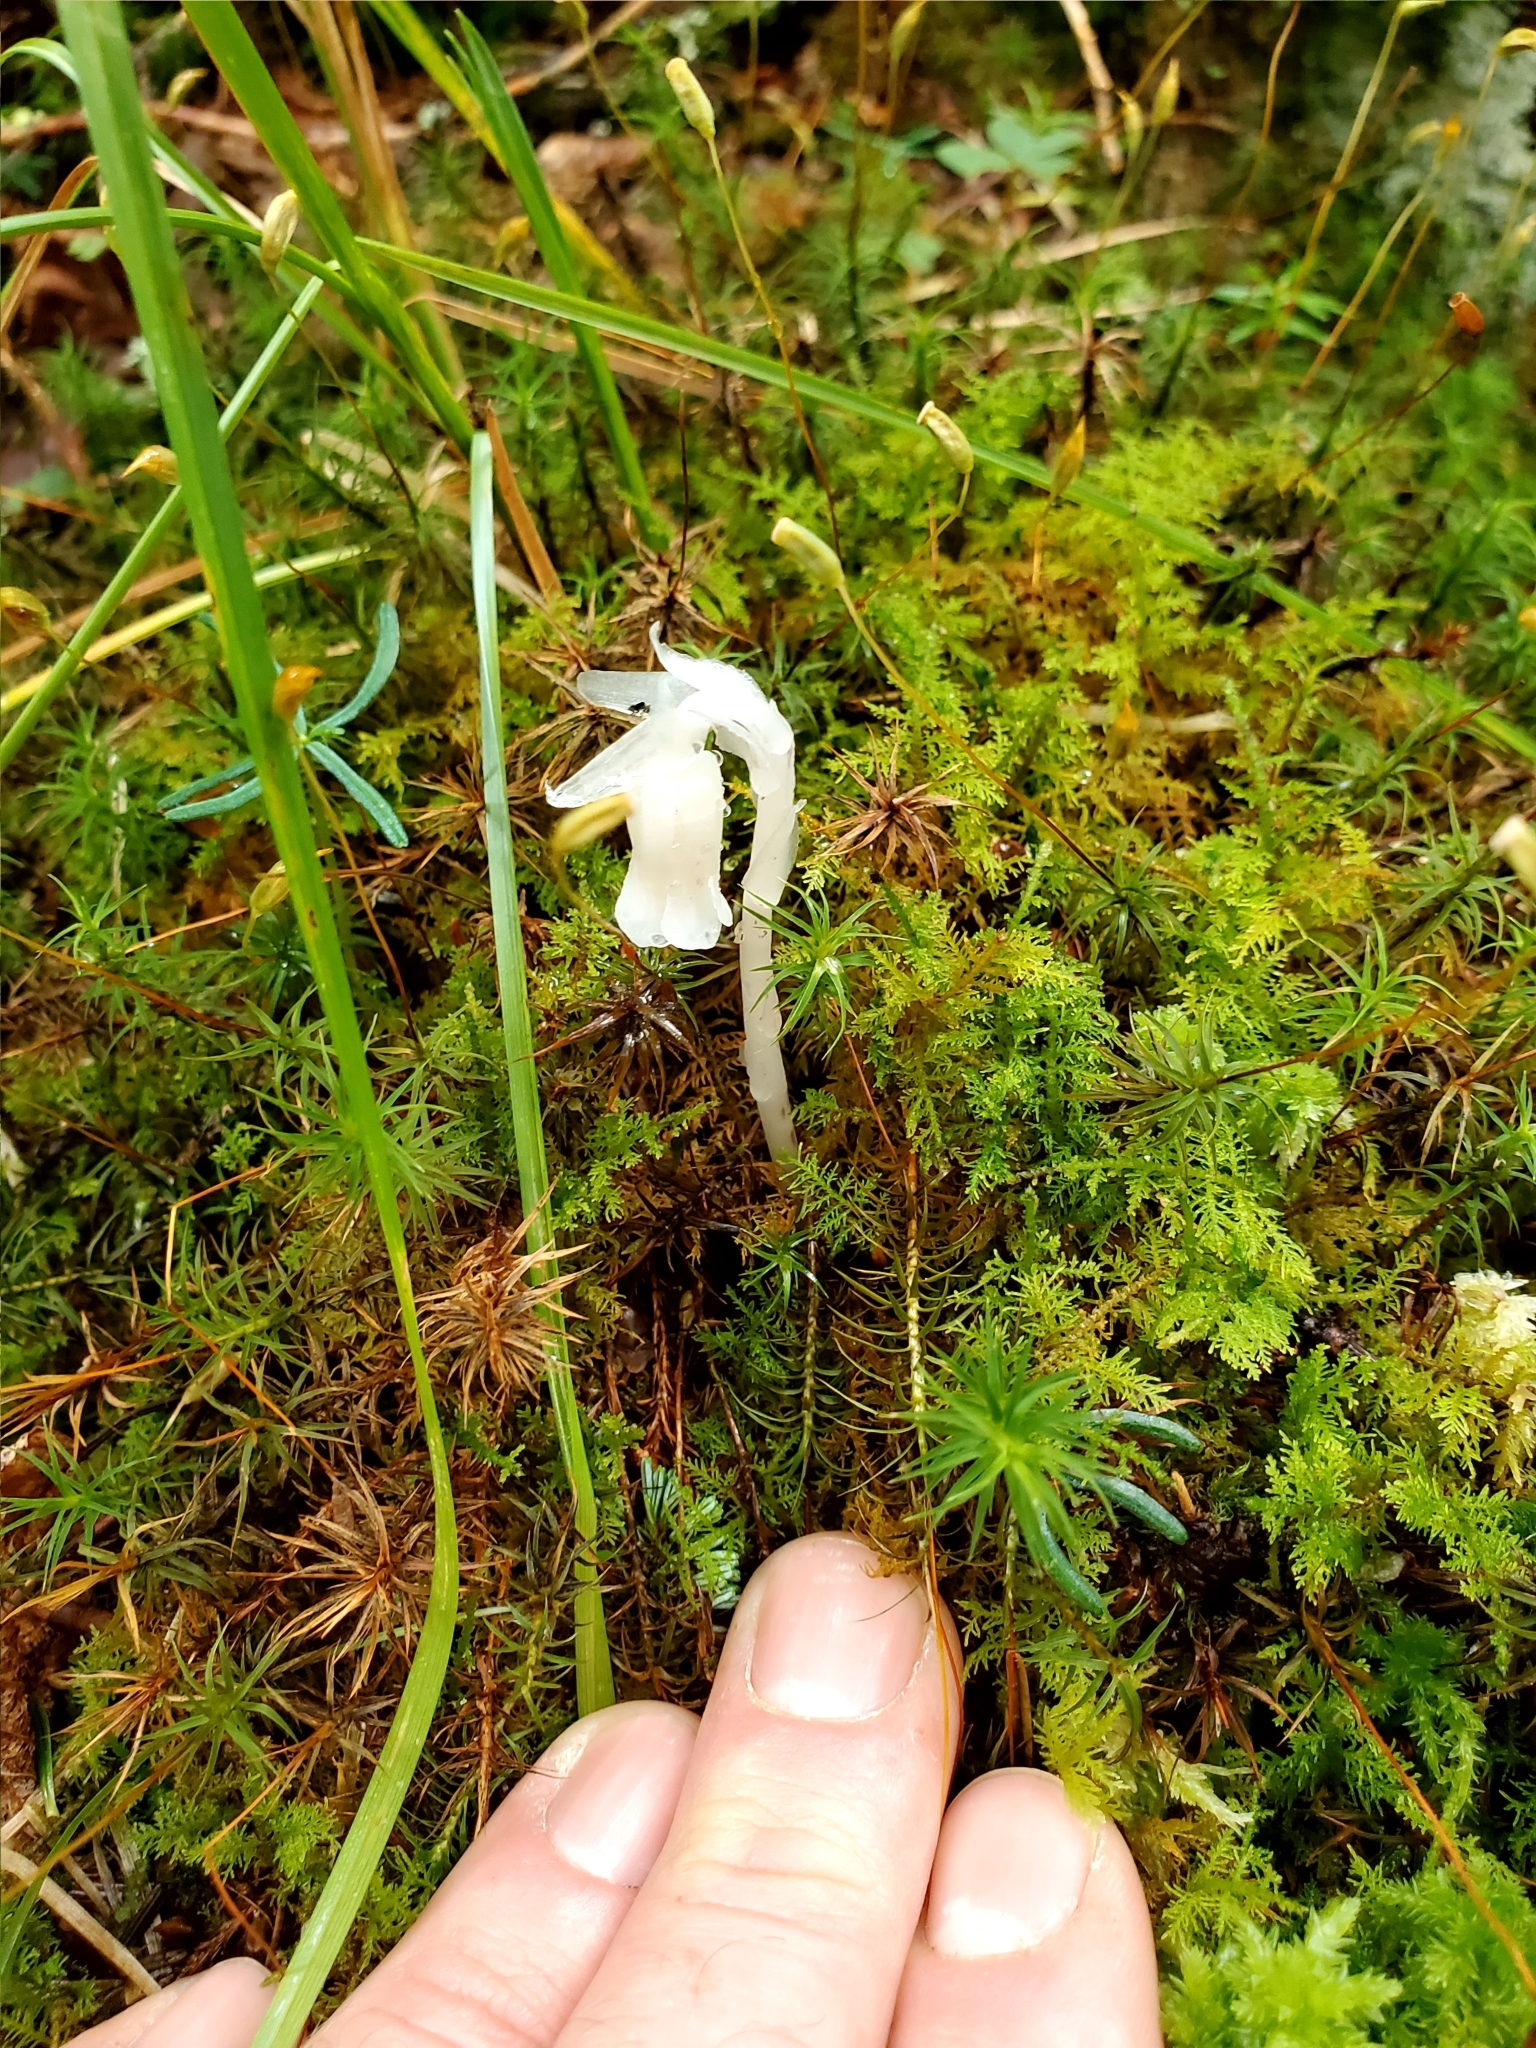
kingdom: Plantae
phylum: Tracheophyta
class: Magnoliopsida
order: Ericales
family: Ericaceae
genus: Monotropa
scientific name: Monotropa uniflora
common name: Convulsion root
